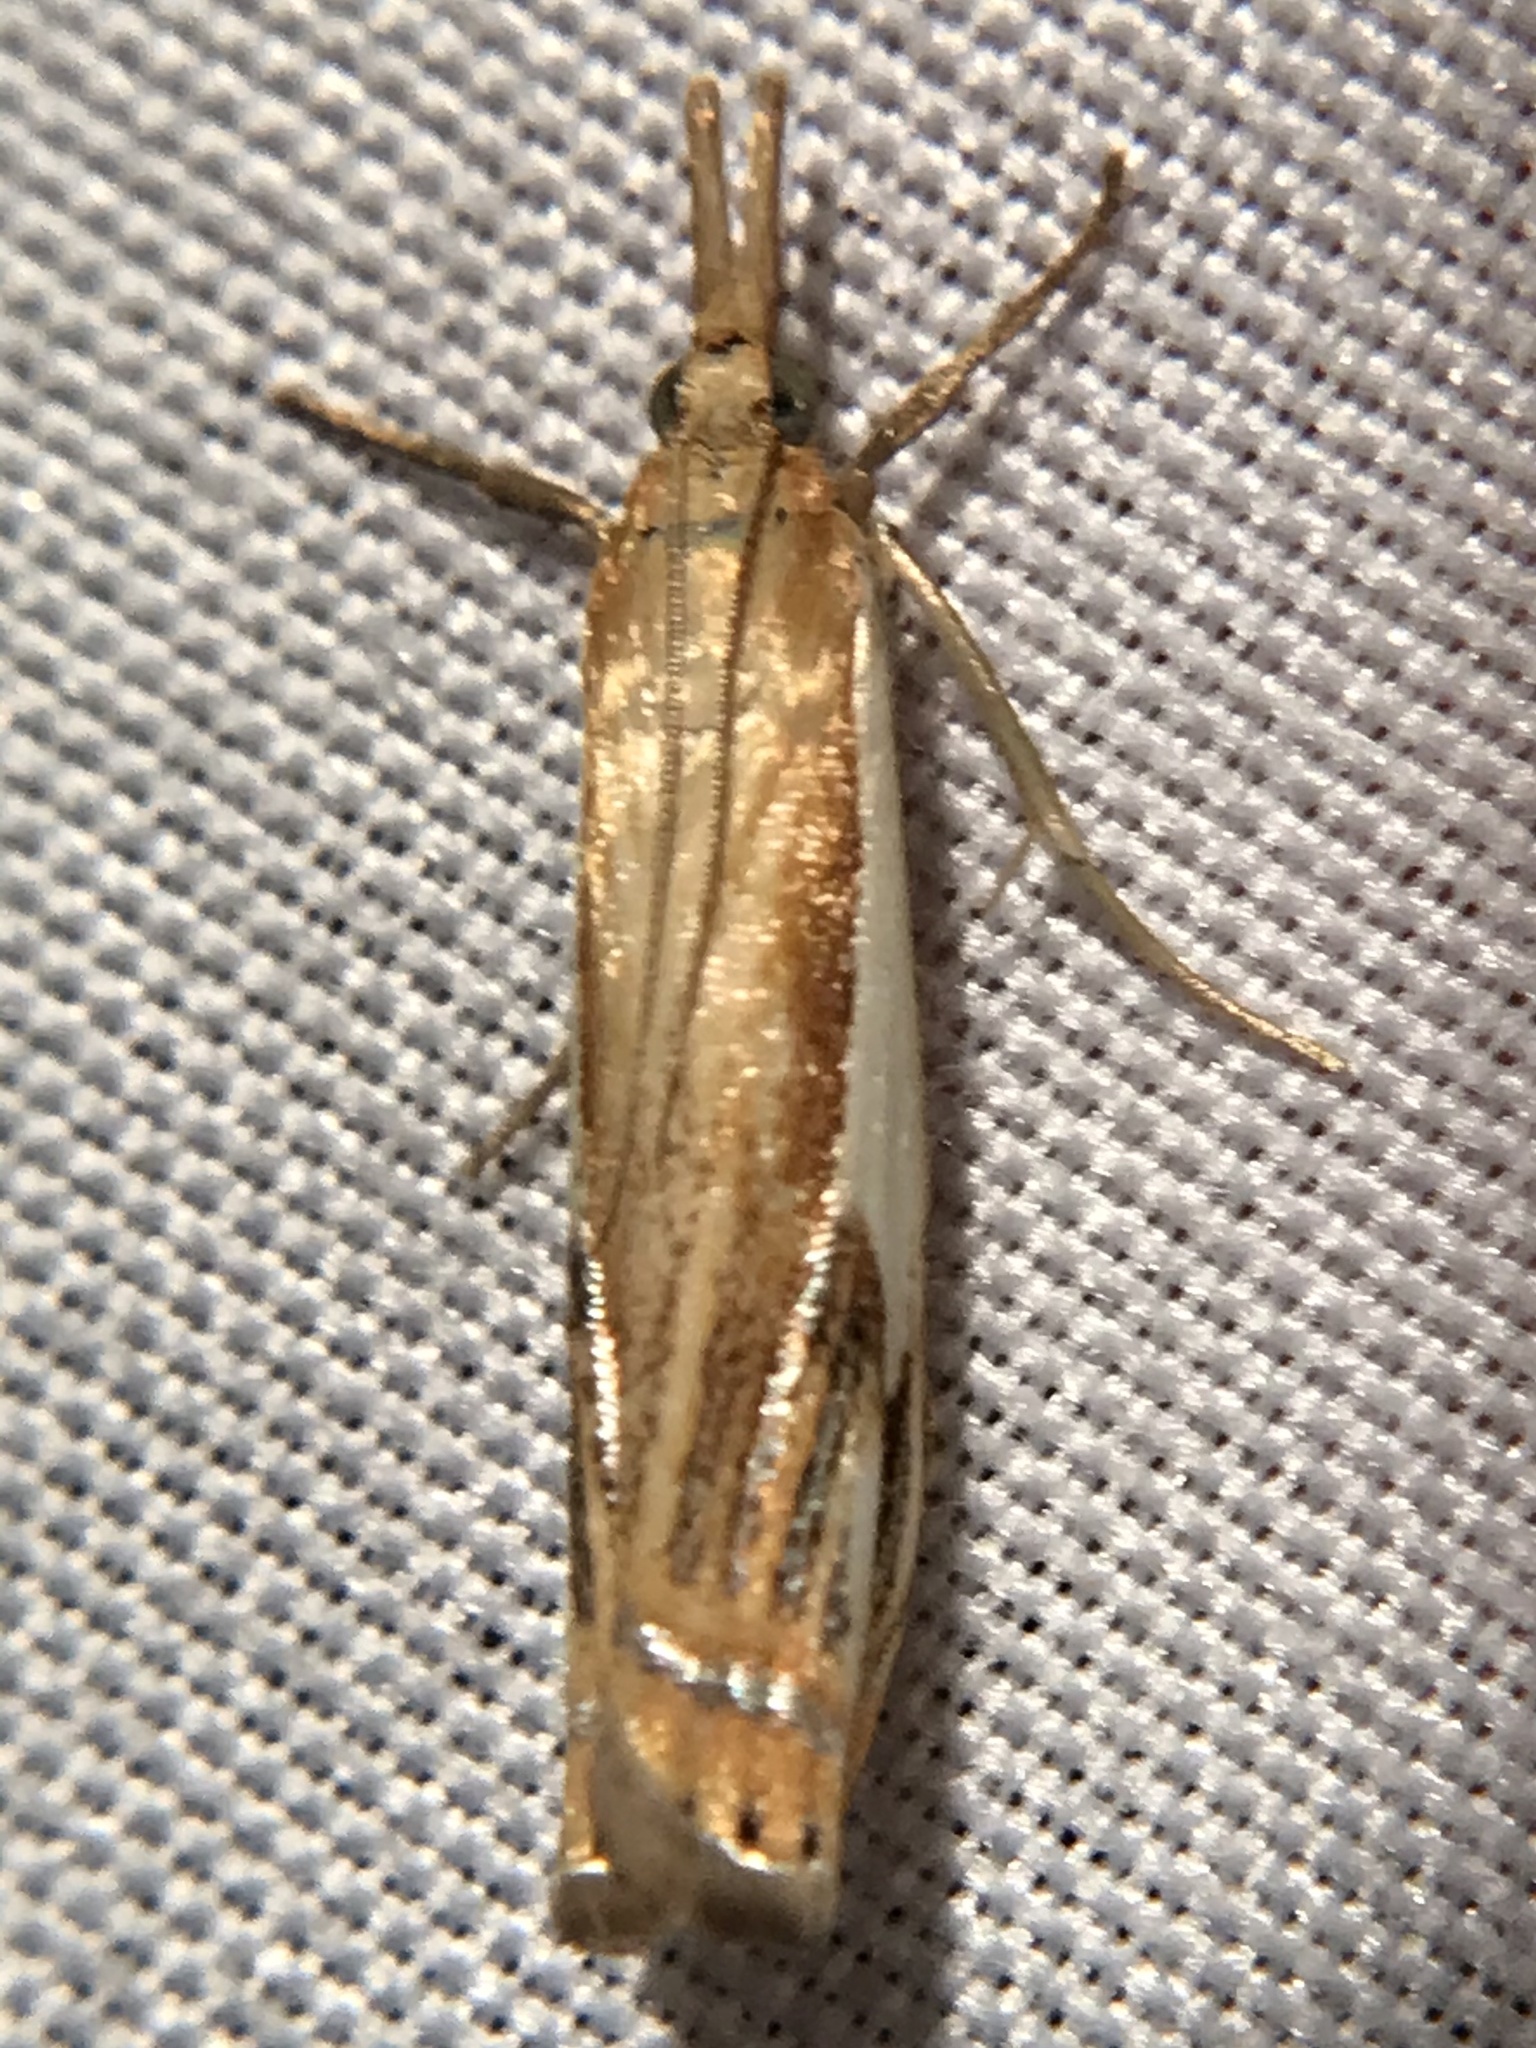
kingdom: Animalia
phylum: Arthropoda
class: Insecta
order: Lepidoptera
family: Crambidae
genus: Crambus
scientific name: Crambus agitatellus
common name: Double-banded grass-veneer
